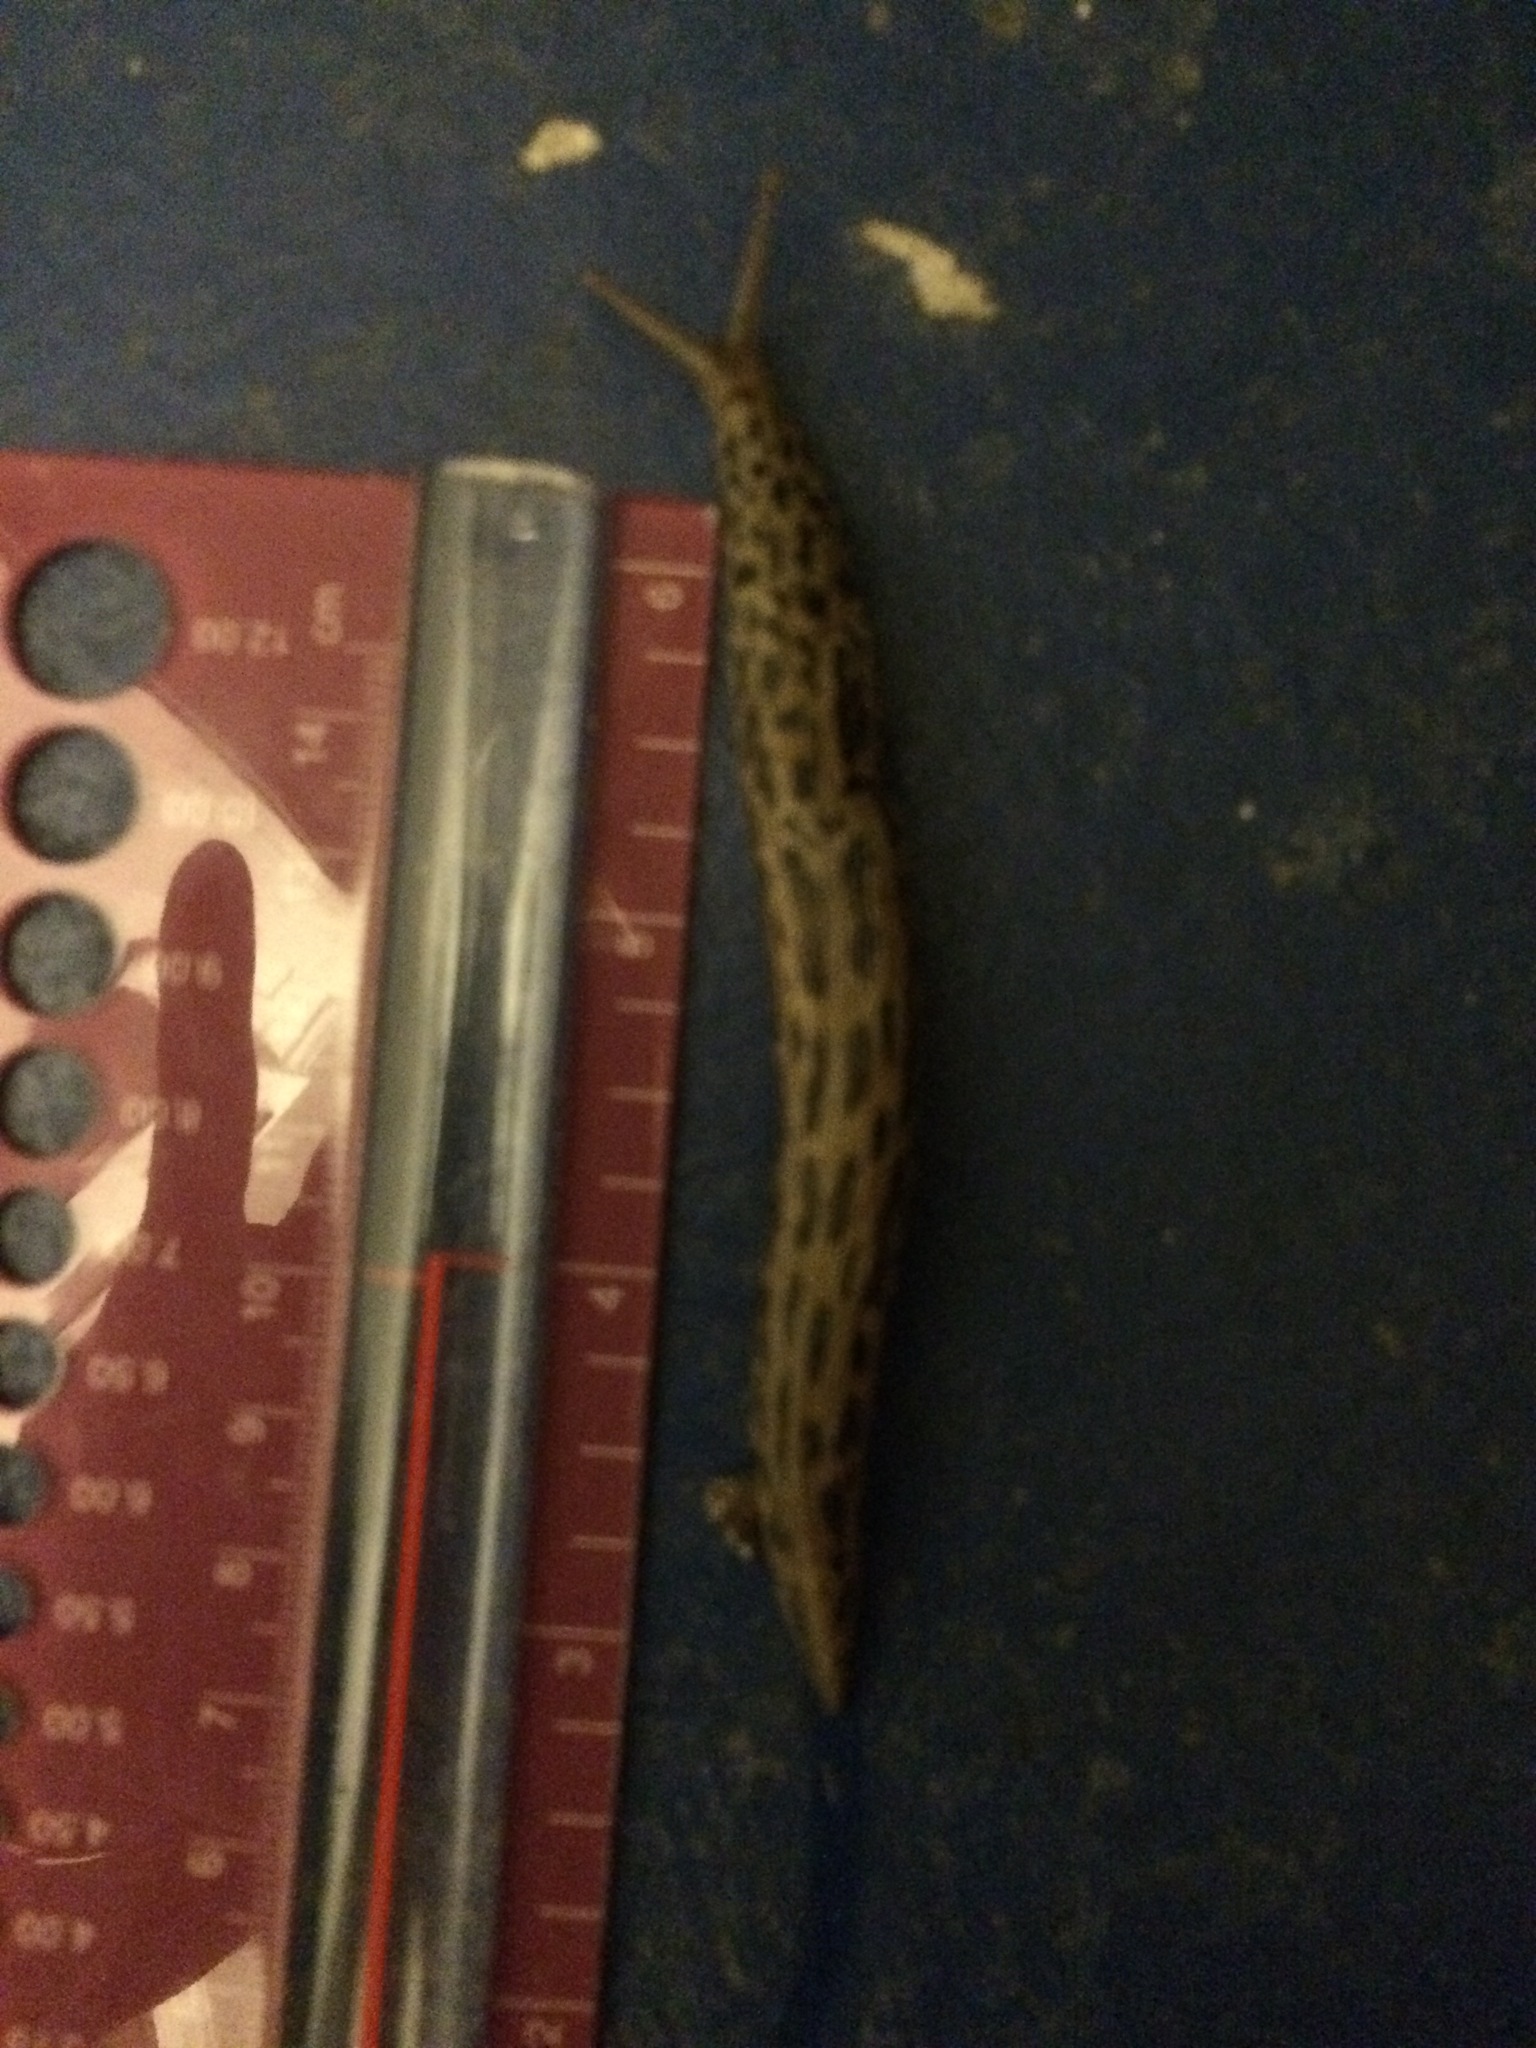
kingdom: Animalia
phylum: Mollusca
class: Gastropoda
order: Stylommatophora
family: Limacidae
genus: Limax
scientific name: Limax maximus
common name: Great grey slug
